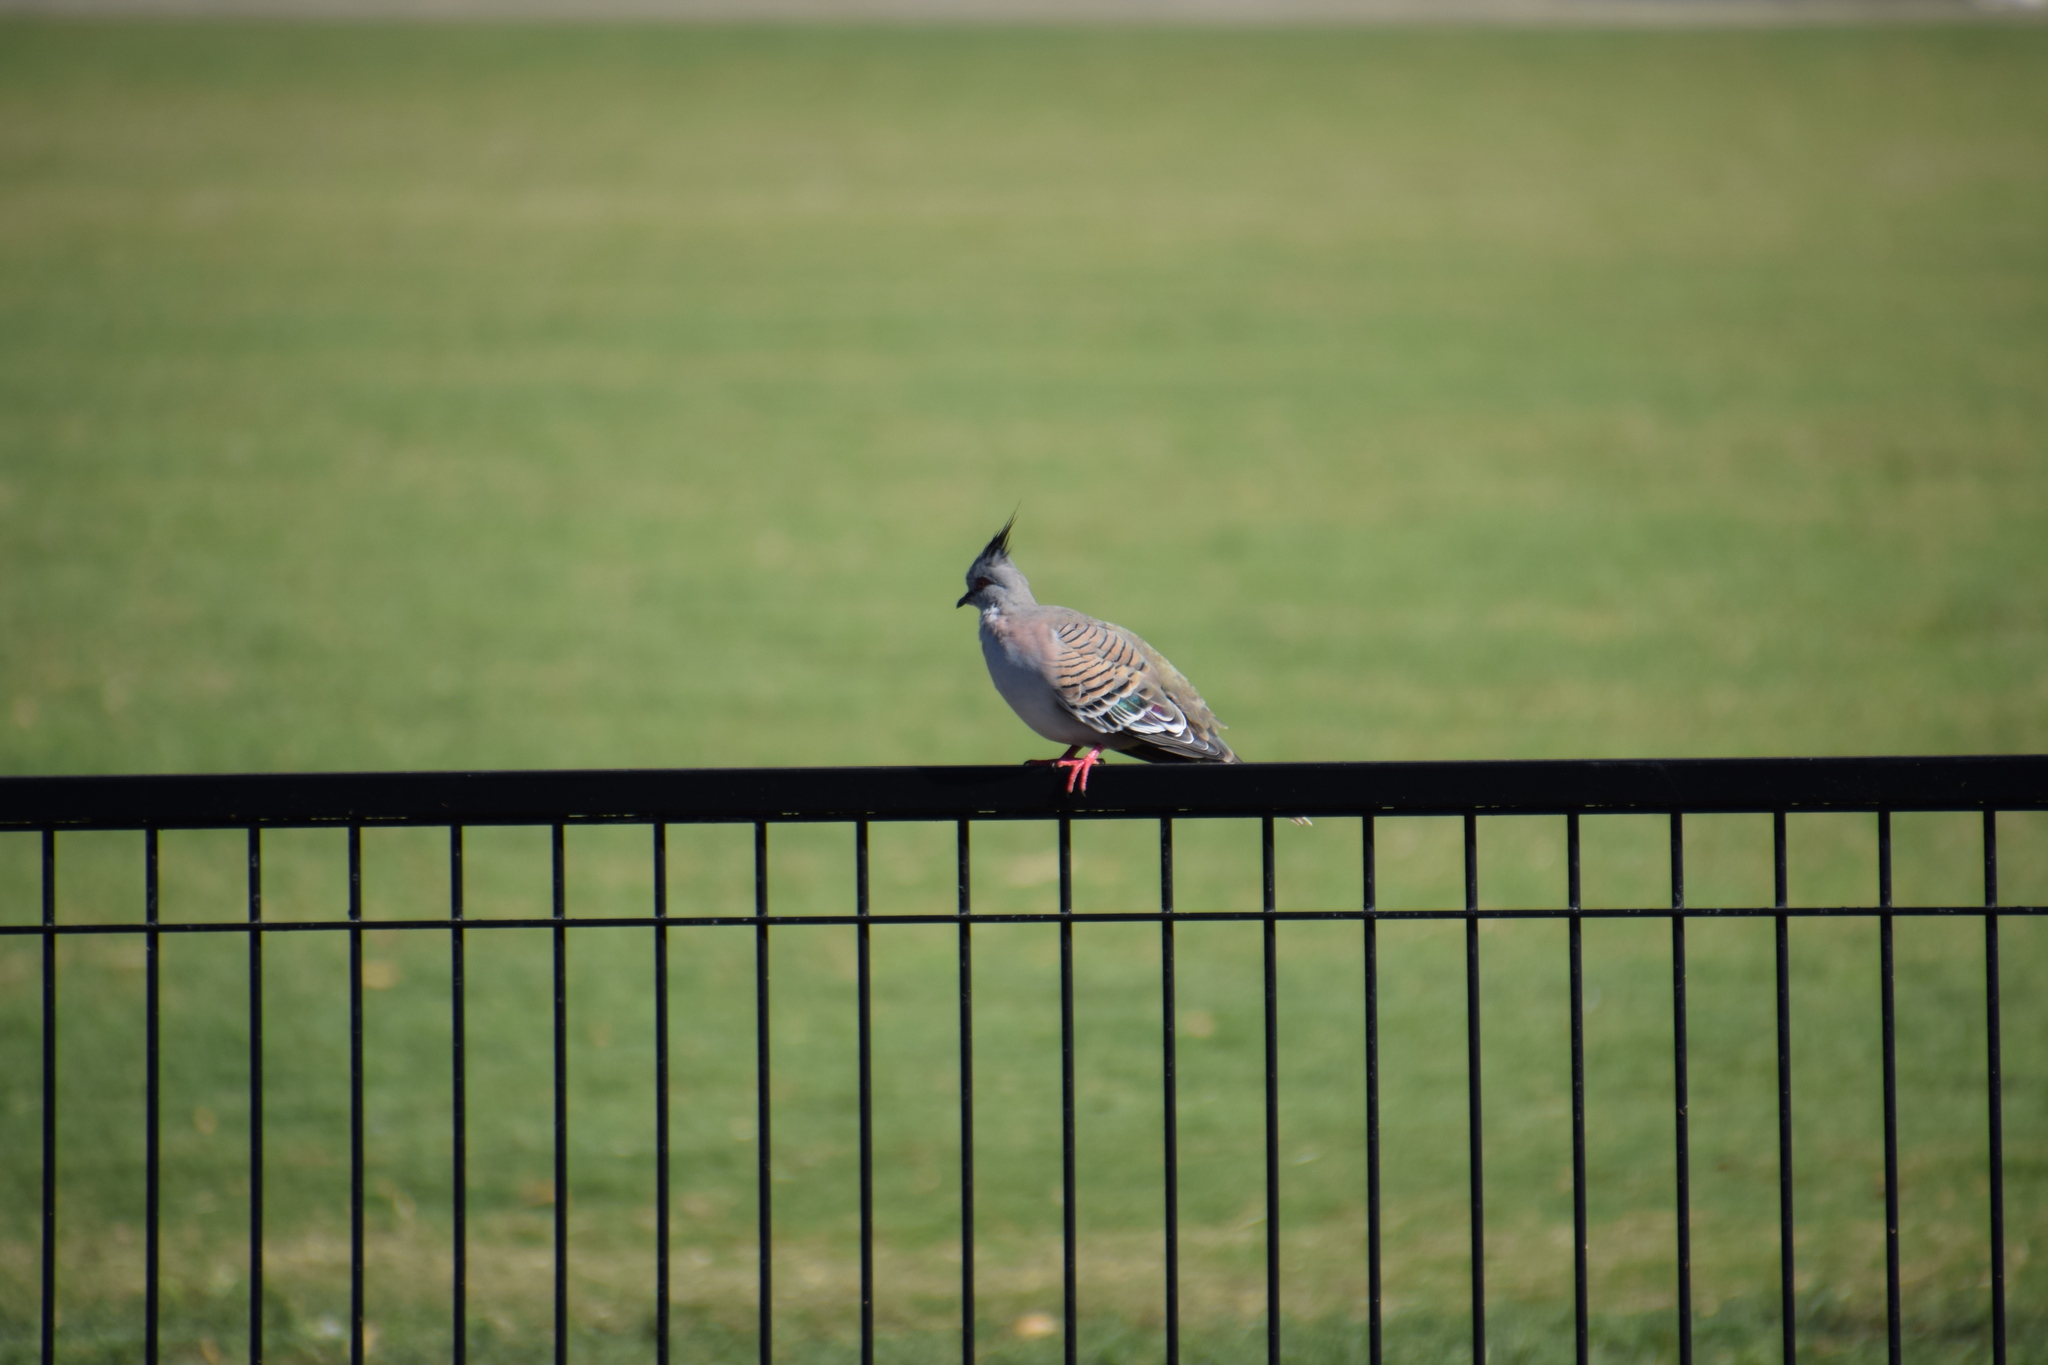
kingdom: Animalia
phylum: Chordata
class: Aves
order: Columbiformes
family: Columbidae
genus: Ocyphaps
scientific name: Ocyphaps lophotes
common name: Crested pigeon
